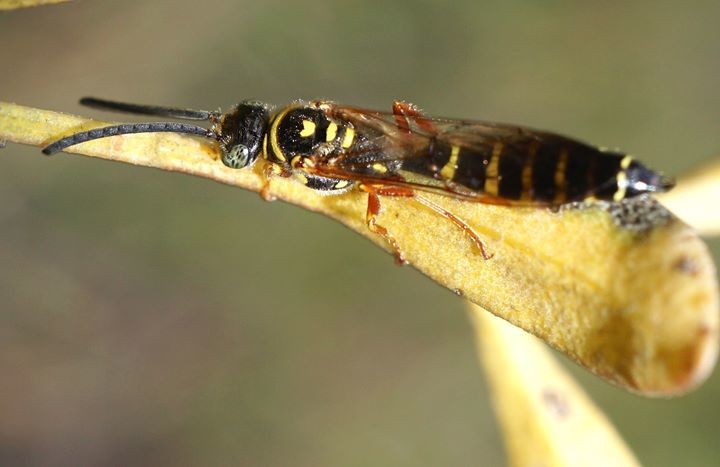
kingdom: Animalia
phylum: Arthropoda
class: Insecta
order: Hymenoptera
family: Tiphiidae
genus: Myzinum
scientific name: Myzinum dubiosum
